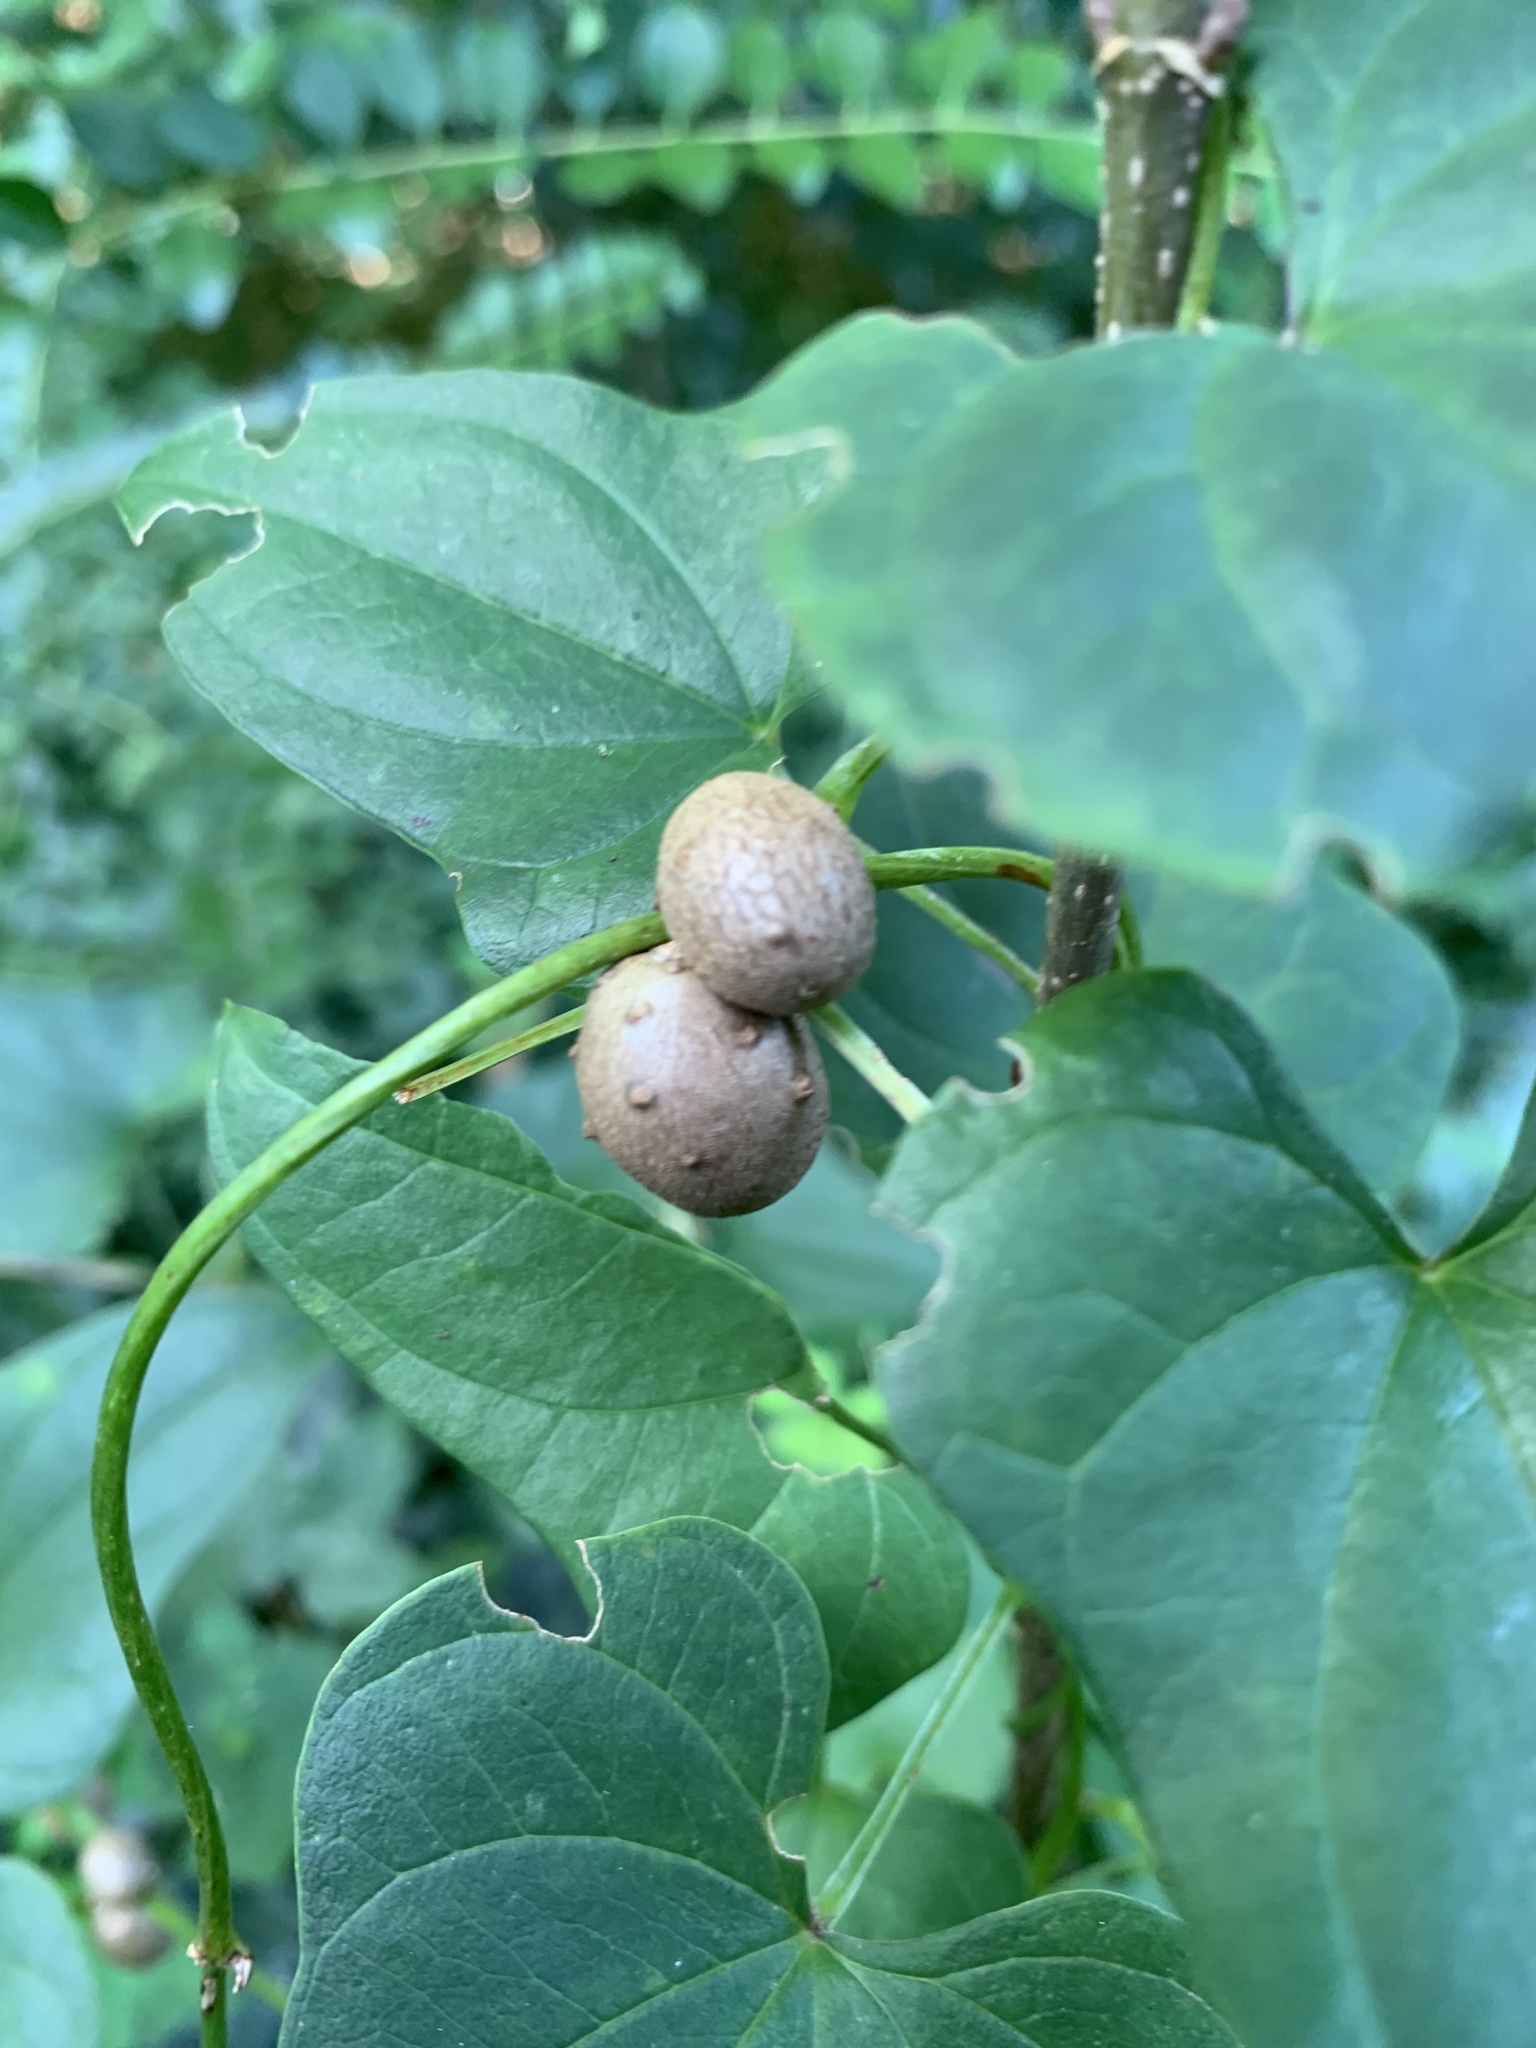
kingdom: Plantae
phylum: Tracheophyta
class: Liliopsida
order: Dioscoreales
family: Dioscoreaceae
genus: Dioscorea
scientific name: Dioscorea polystachya
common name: Chinese yam
